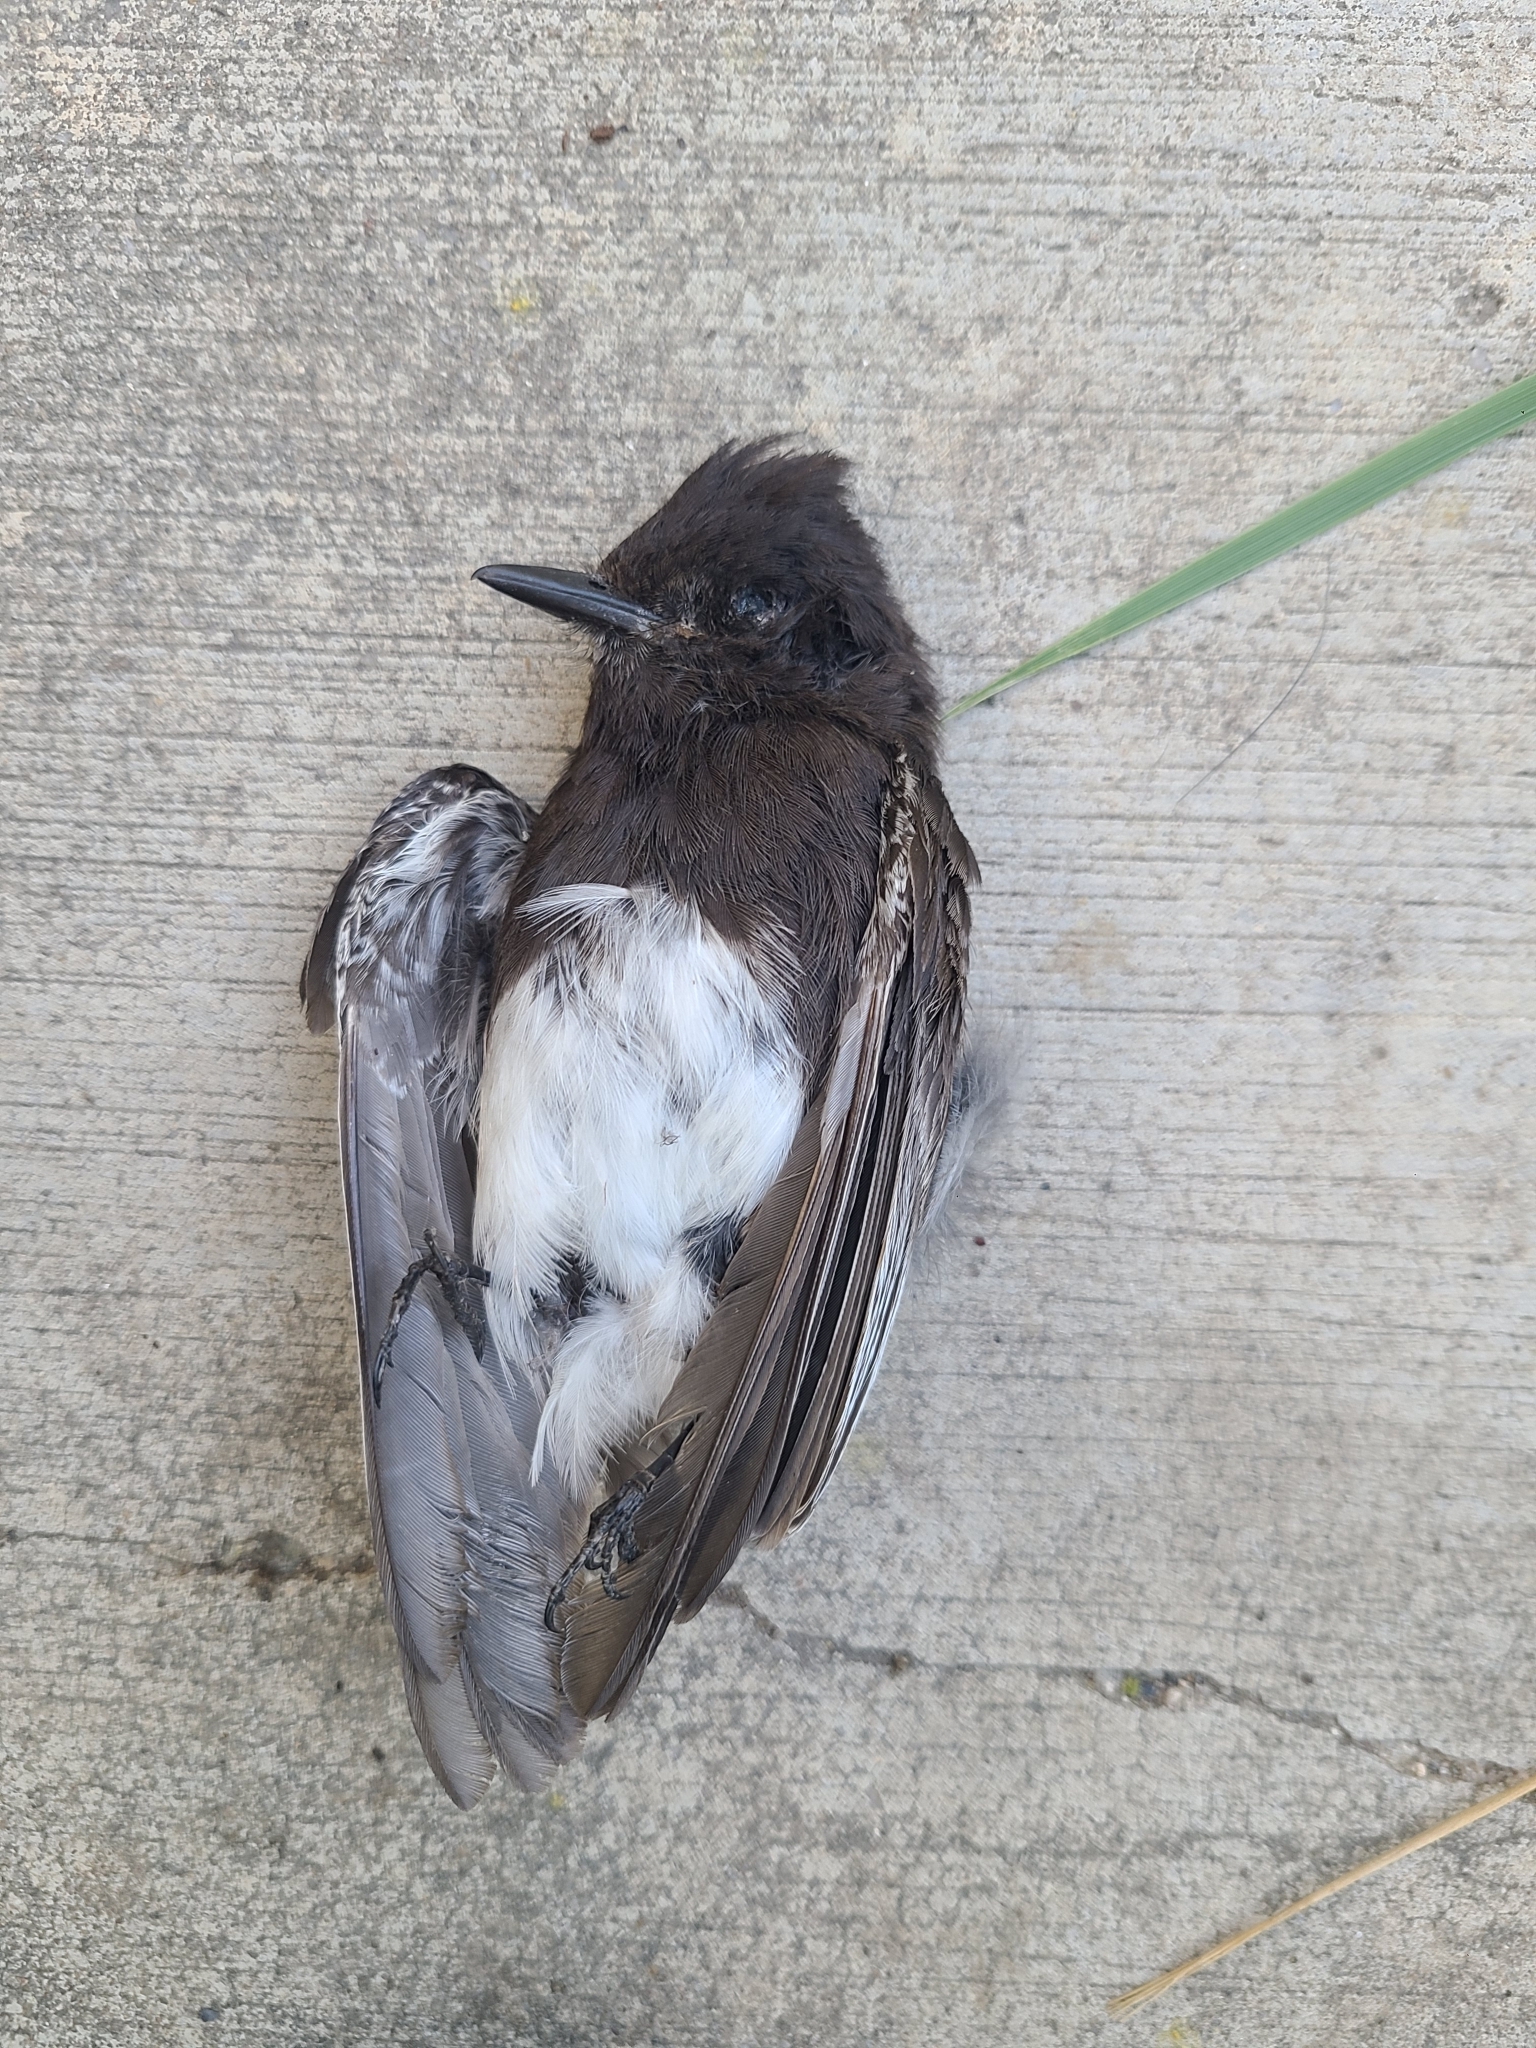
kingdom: Animalia
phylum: Chordata
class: Aves
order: Passeriformes
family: Tyrannidae
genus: Sayornis
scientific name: Sayornis nigricans
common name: Black phoebe
